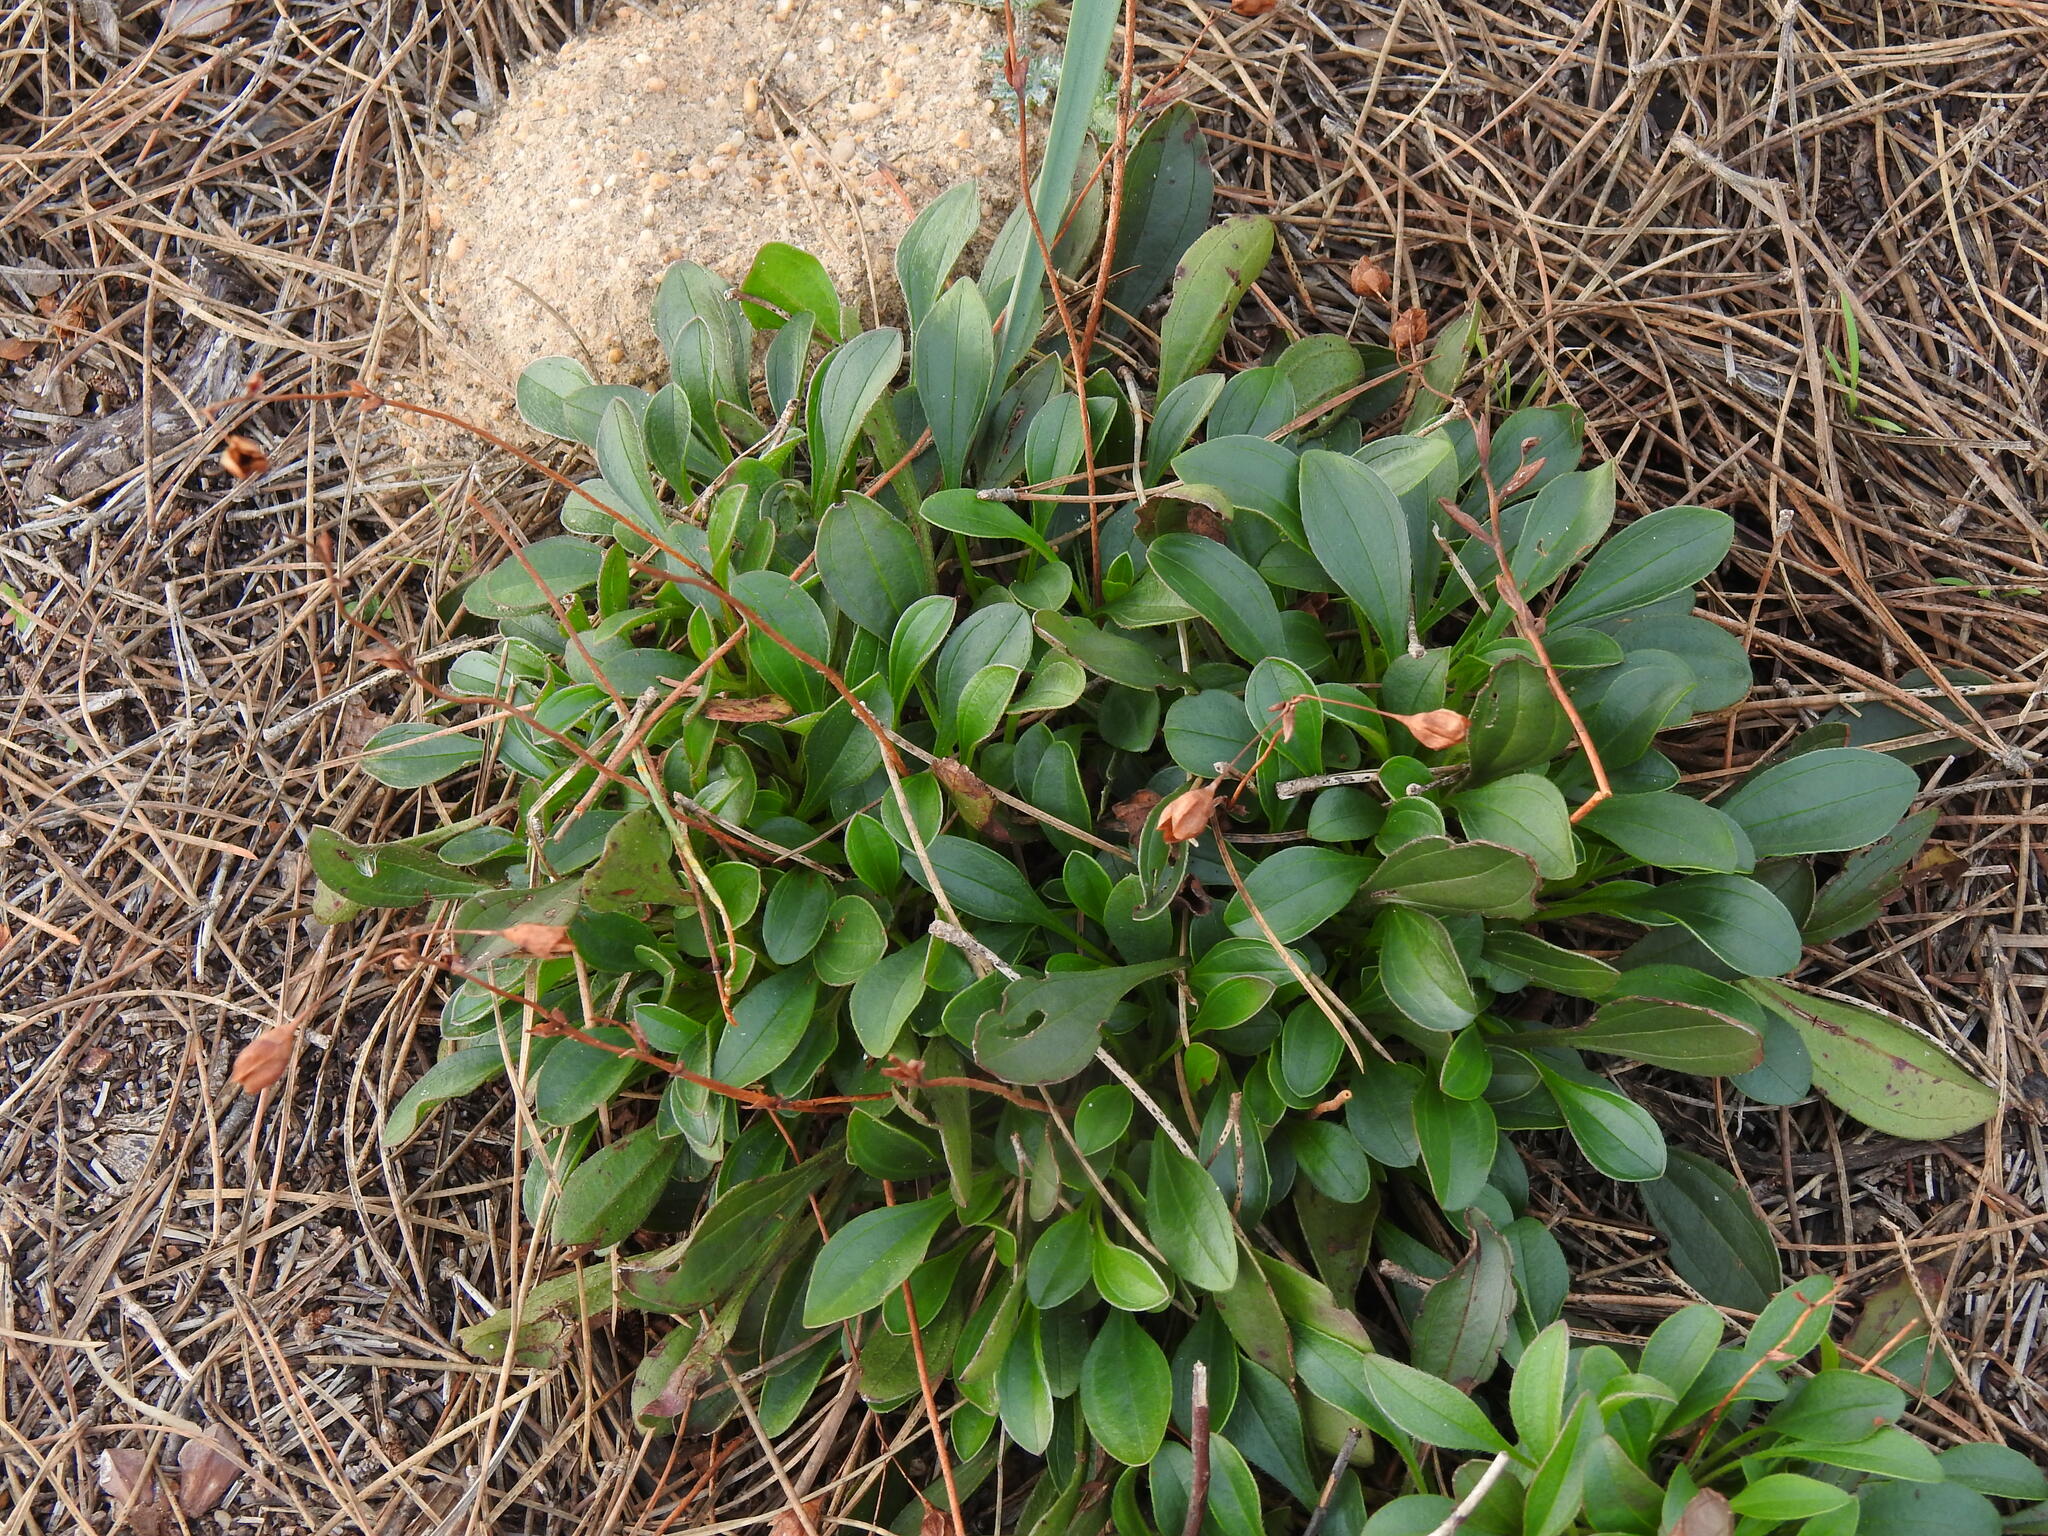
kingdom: Plantae
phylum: Tracheophyta
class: Magnoliopsida
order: Malvales
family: Cistaceae
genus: Tuberaria
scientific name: Tuberaria globulariifolia
